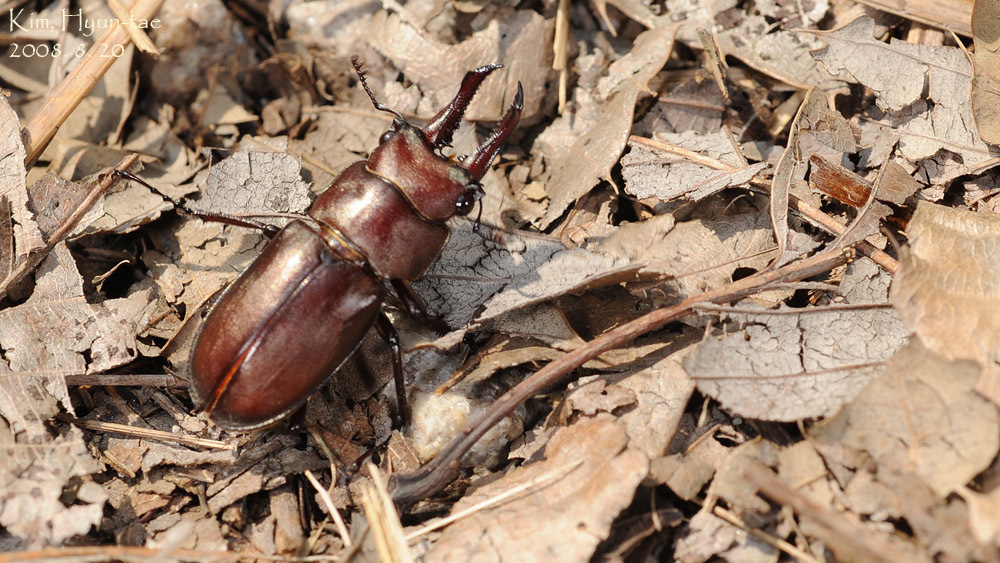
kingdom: Animalia
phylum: Arthropoda
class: Insecta
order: Coleoptera
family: Lucanidae
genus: Prismognathus
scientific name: Prismognathus dauricus
